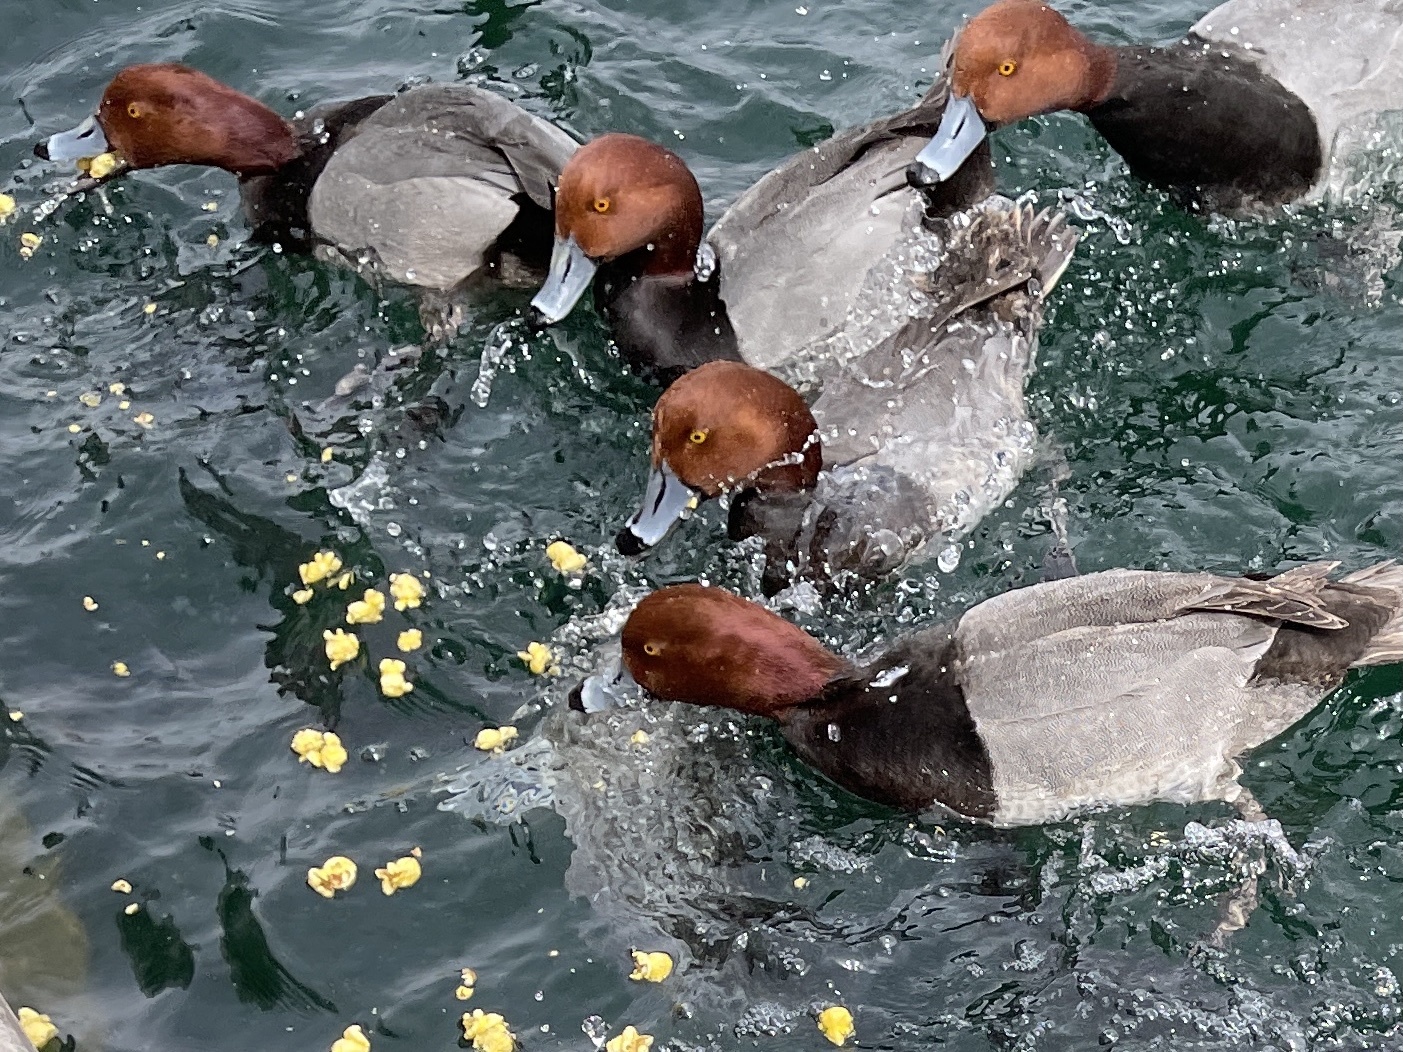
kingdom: Animalia
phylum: Chordata
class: Aves
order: Anseriformes
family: Anatidae
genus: Aythya
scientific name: Aythya americana
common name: Redhead
